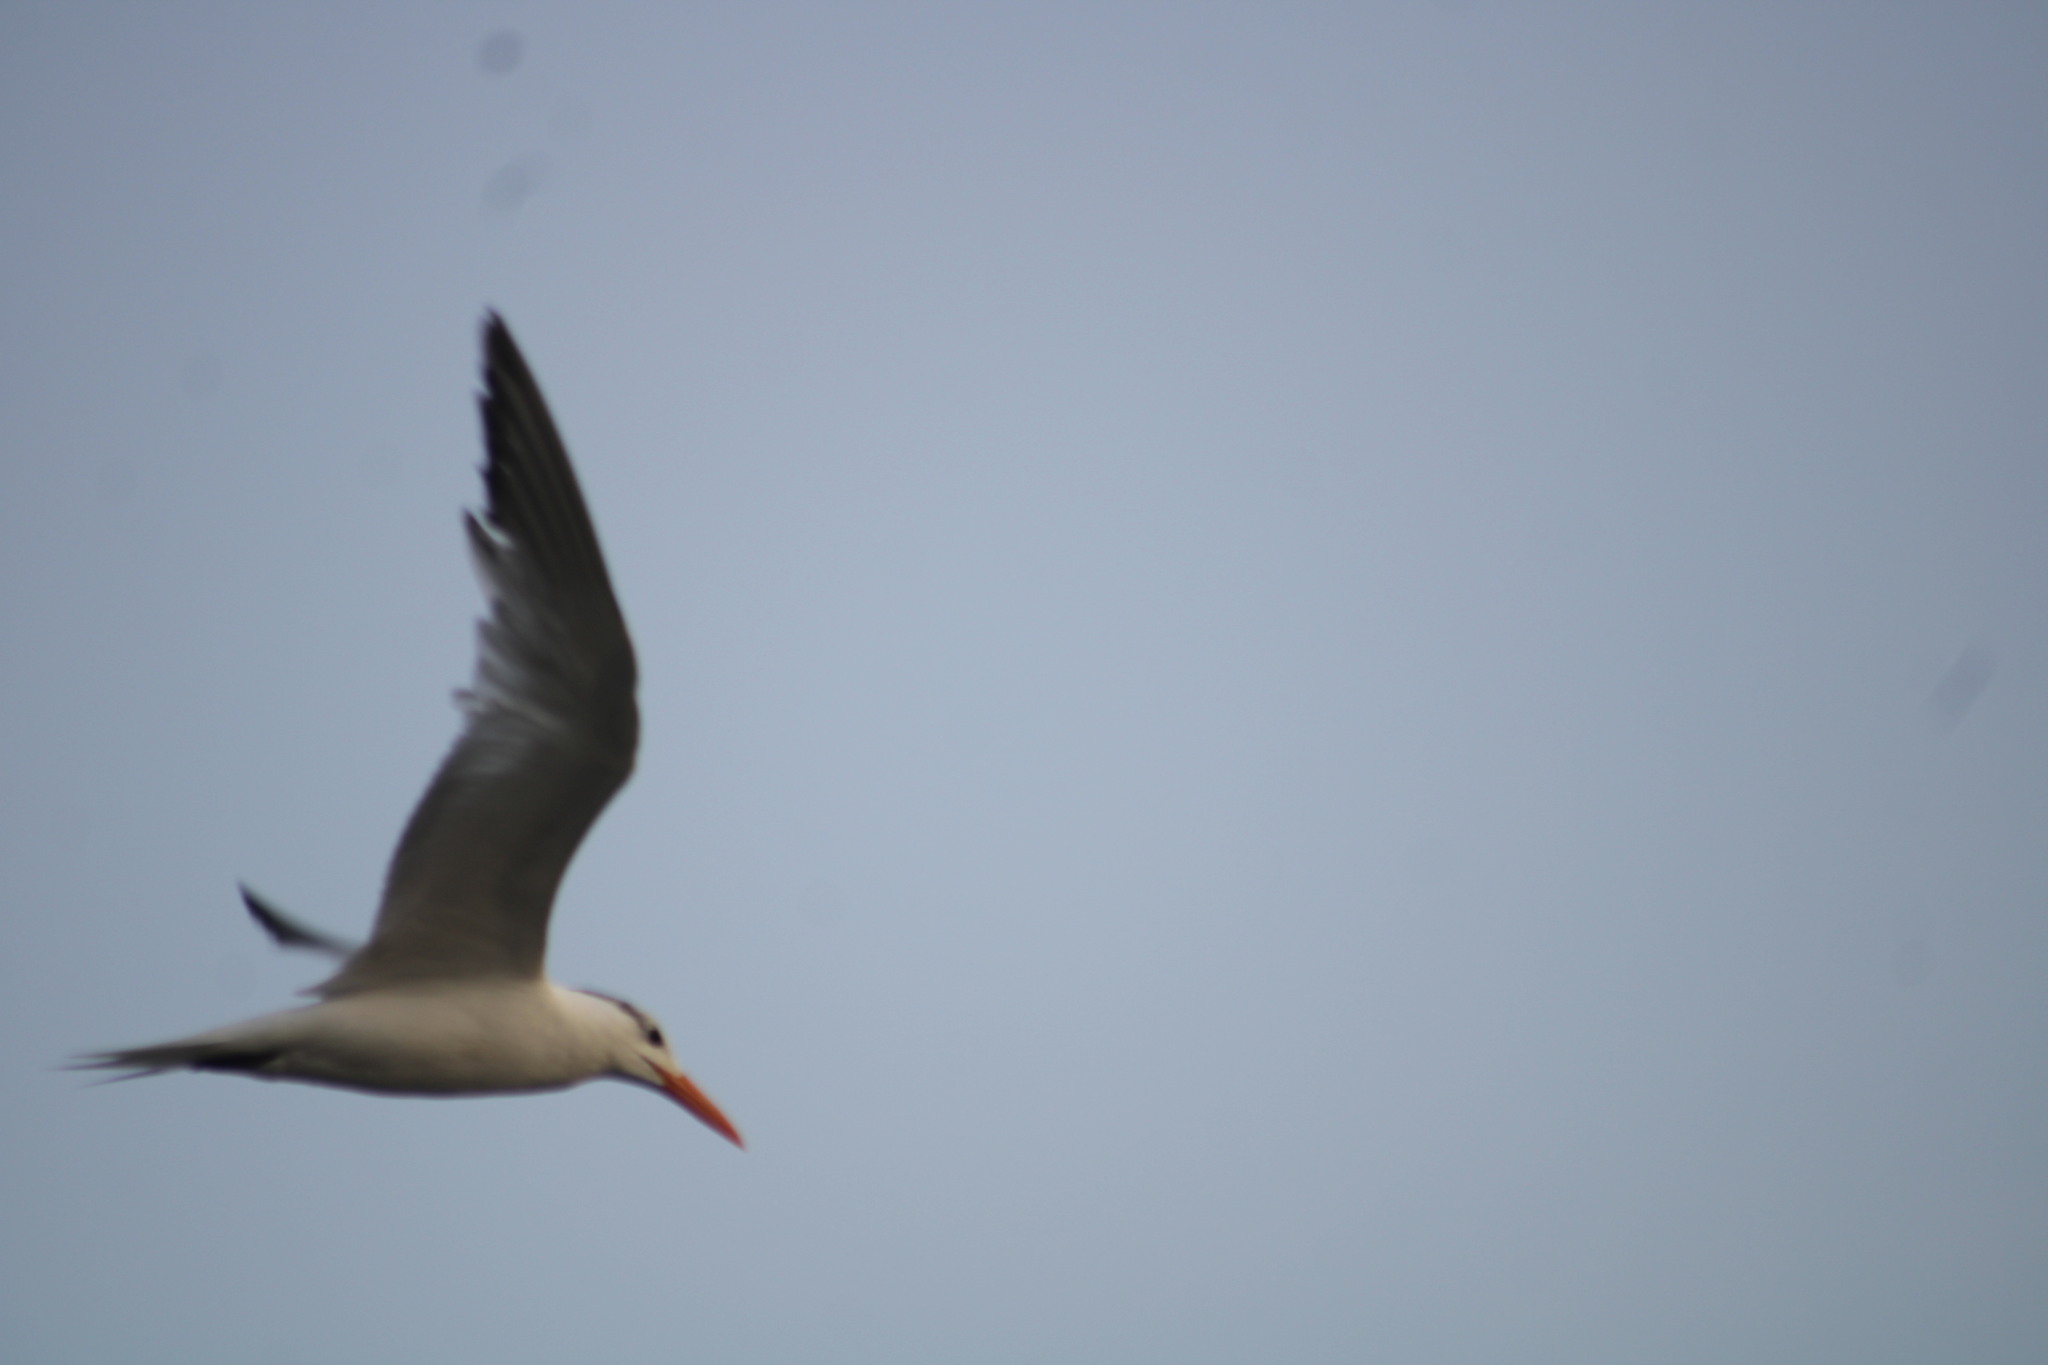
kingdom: Animalia
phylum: Chordata
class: Aves
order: Charadriiformes
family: Laridae
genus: Thalasseus
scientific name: Thalasseus maximus
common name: Royal tern
